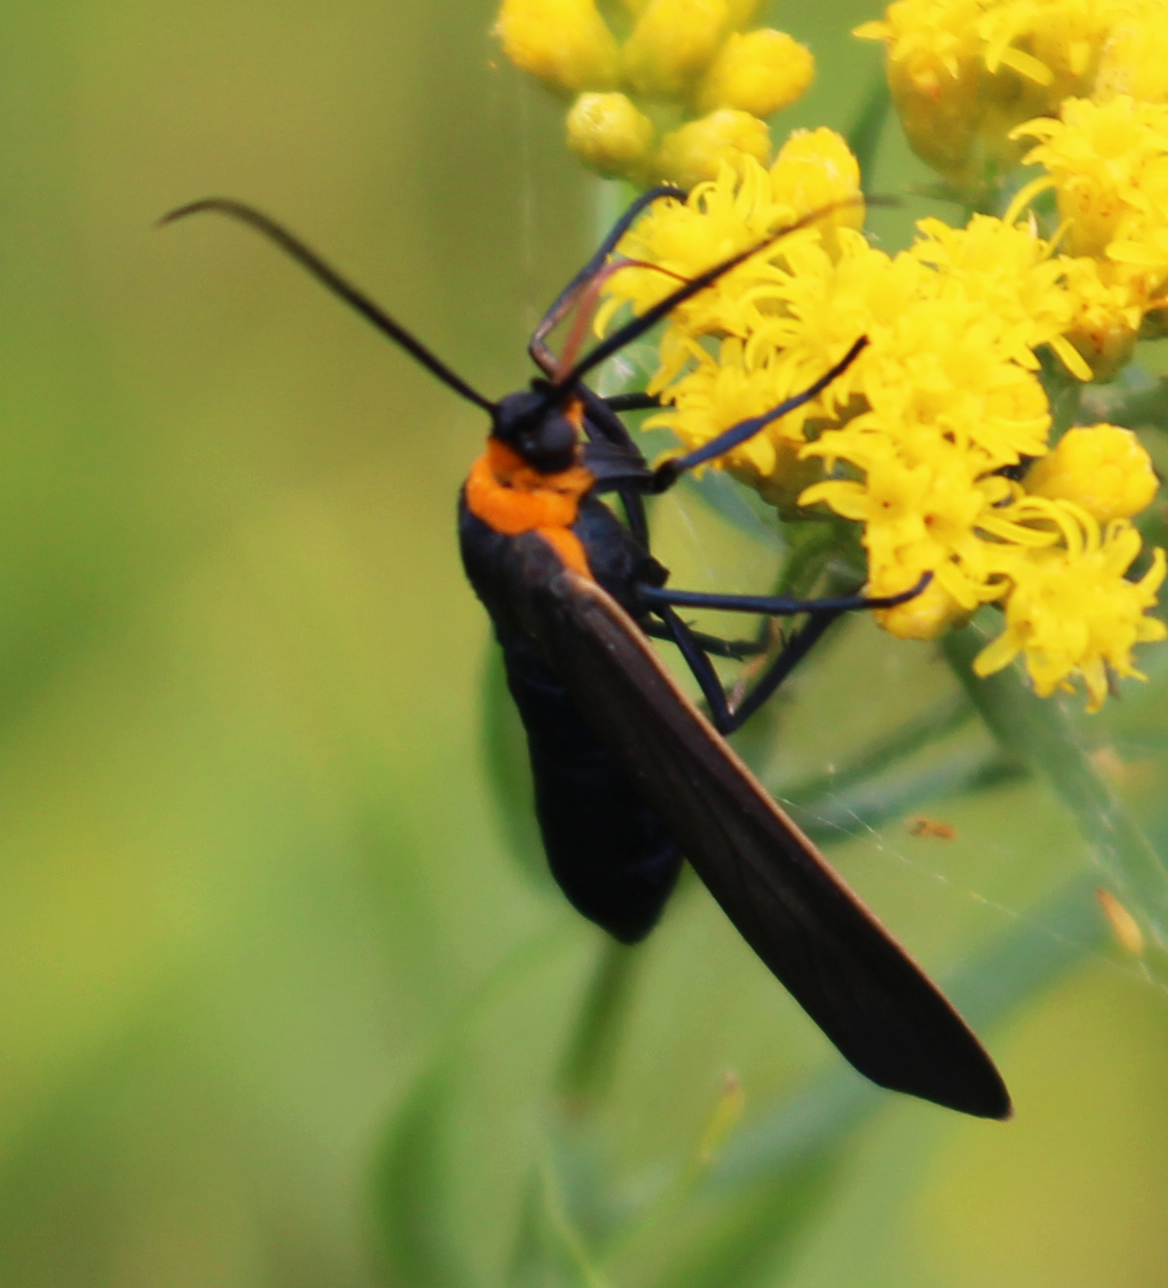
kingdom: Animalia
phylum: Arthropoda
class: Insecta
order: Lepidoptera
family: Erebidae
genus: Cisseps
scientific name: Cisseps fulvicollis
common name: Yellow-collared scape moth
